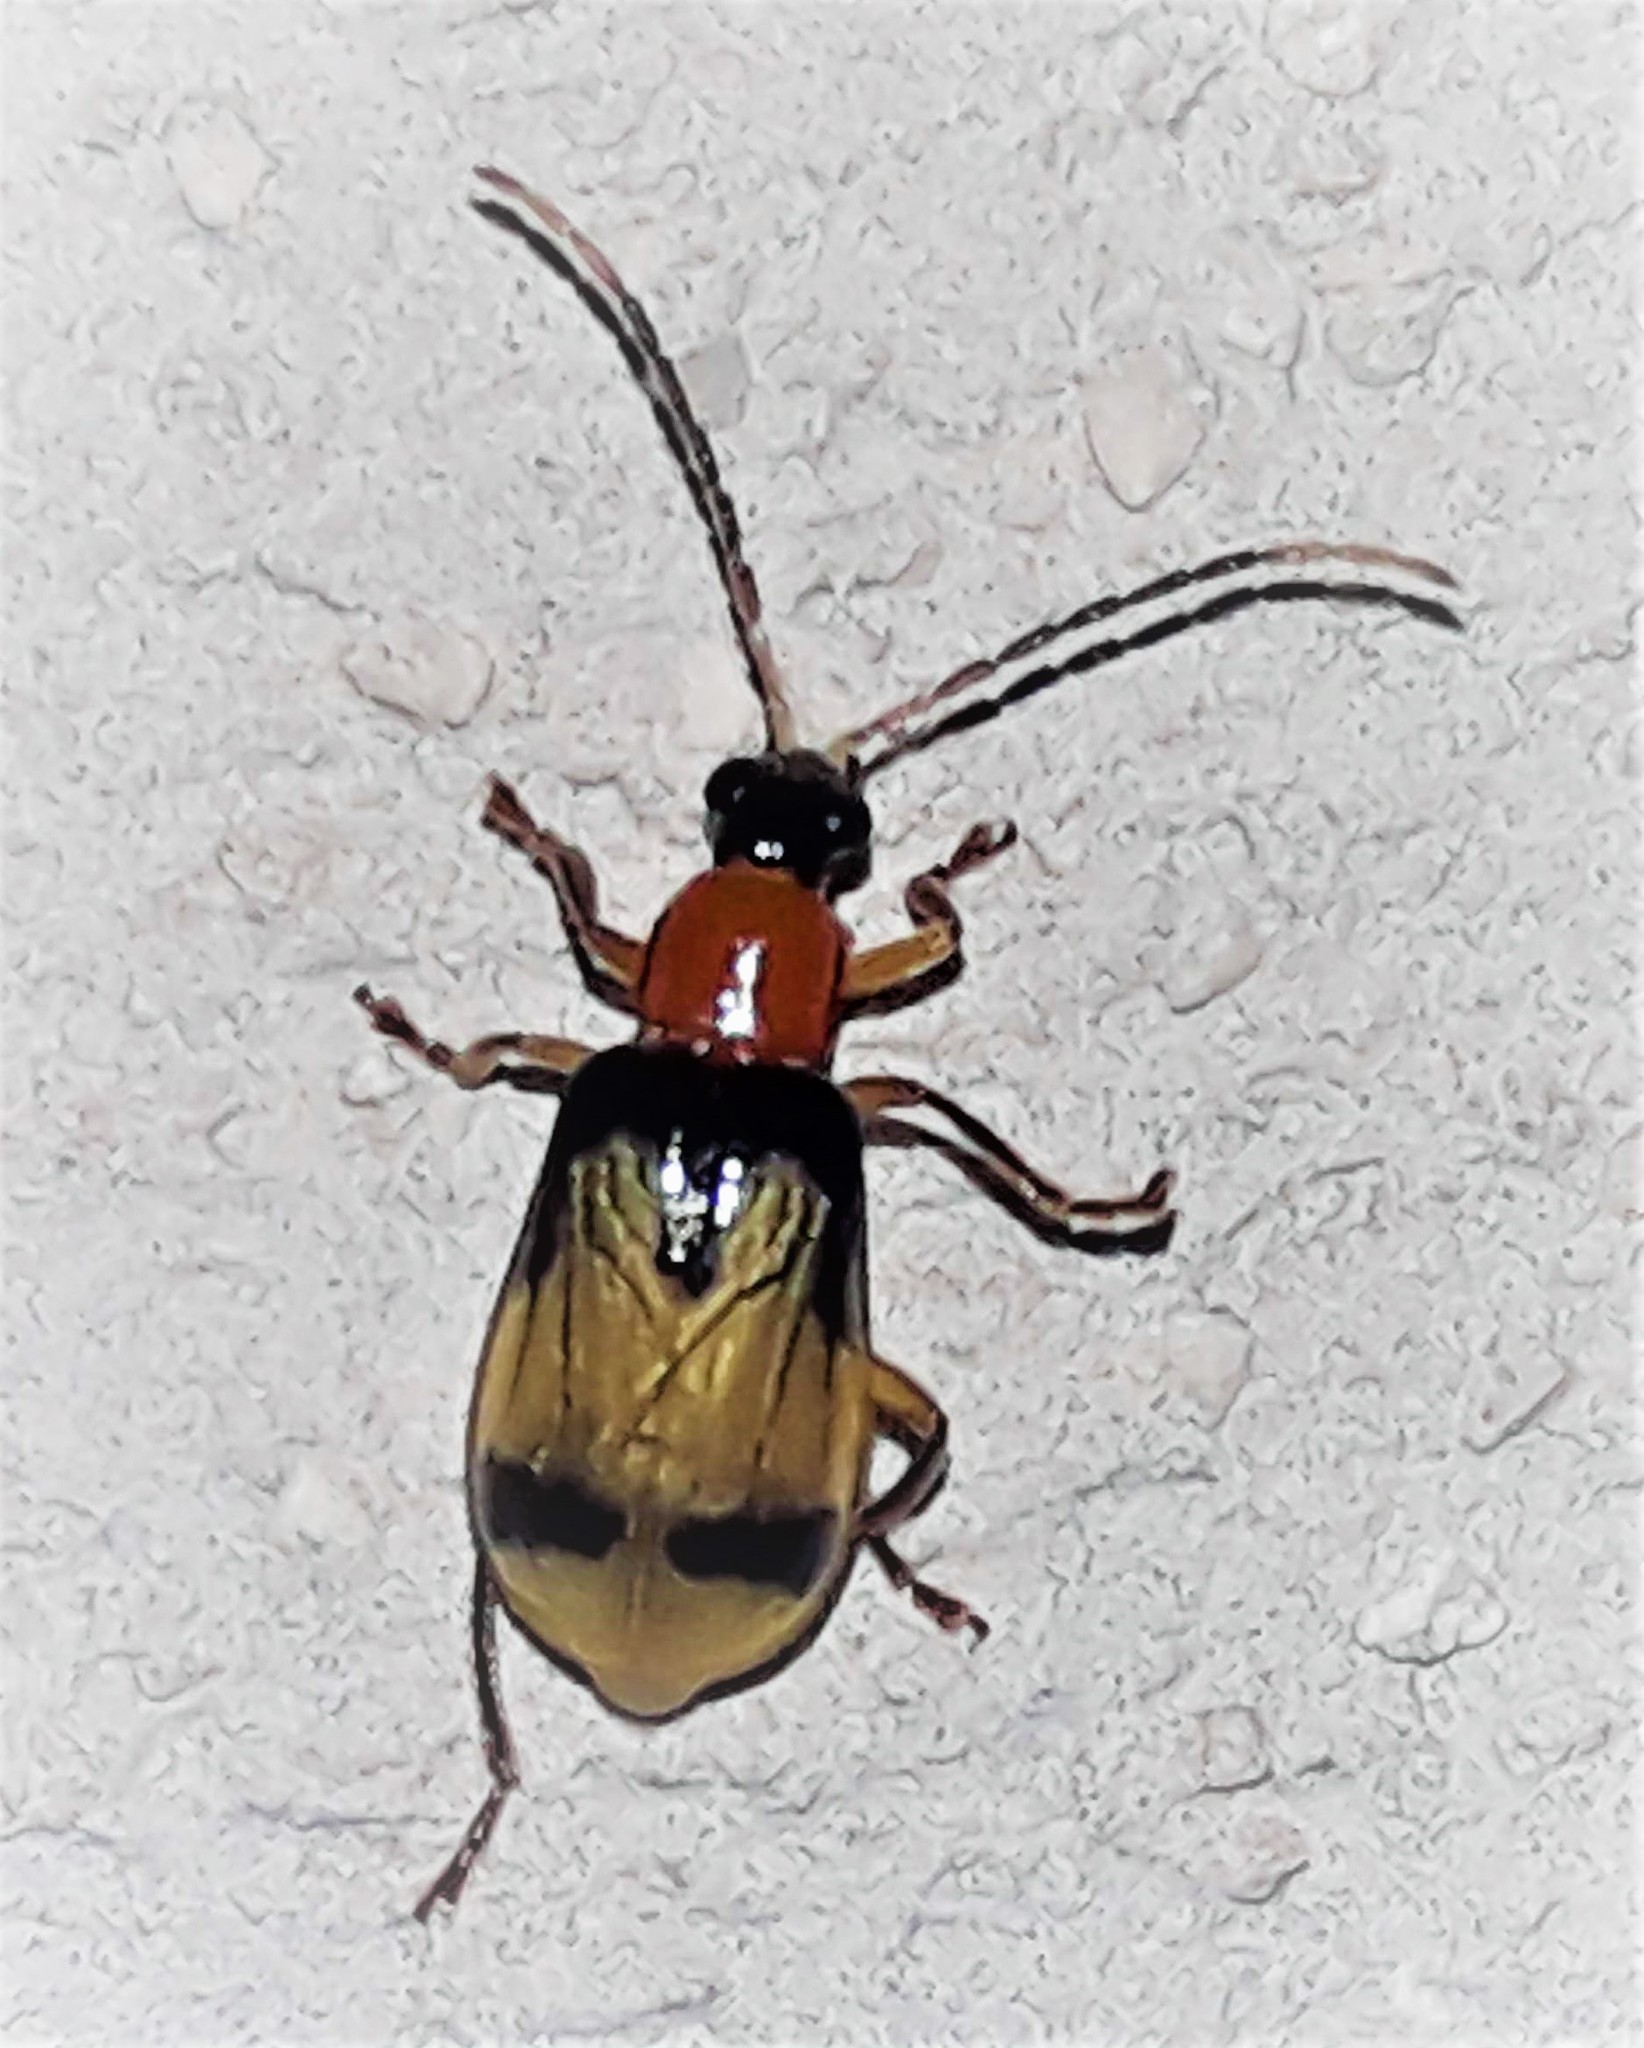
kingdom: Animalia
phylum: Arthropoda
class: Insecta
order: Coleoptera
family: Chrysomelidae
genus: Diabrotica
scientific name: Diabrotica trifurcata
